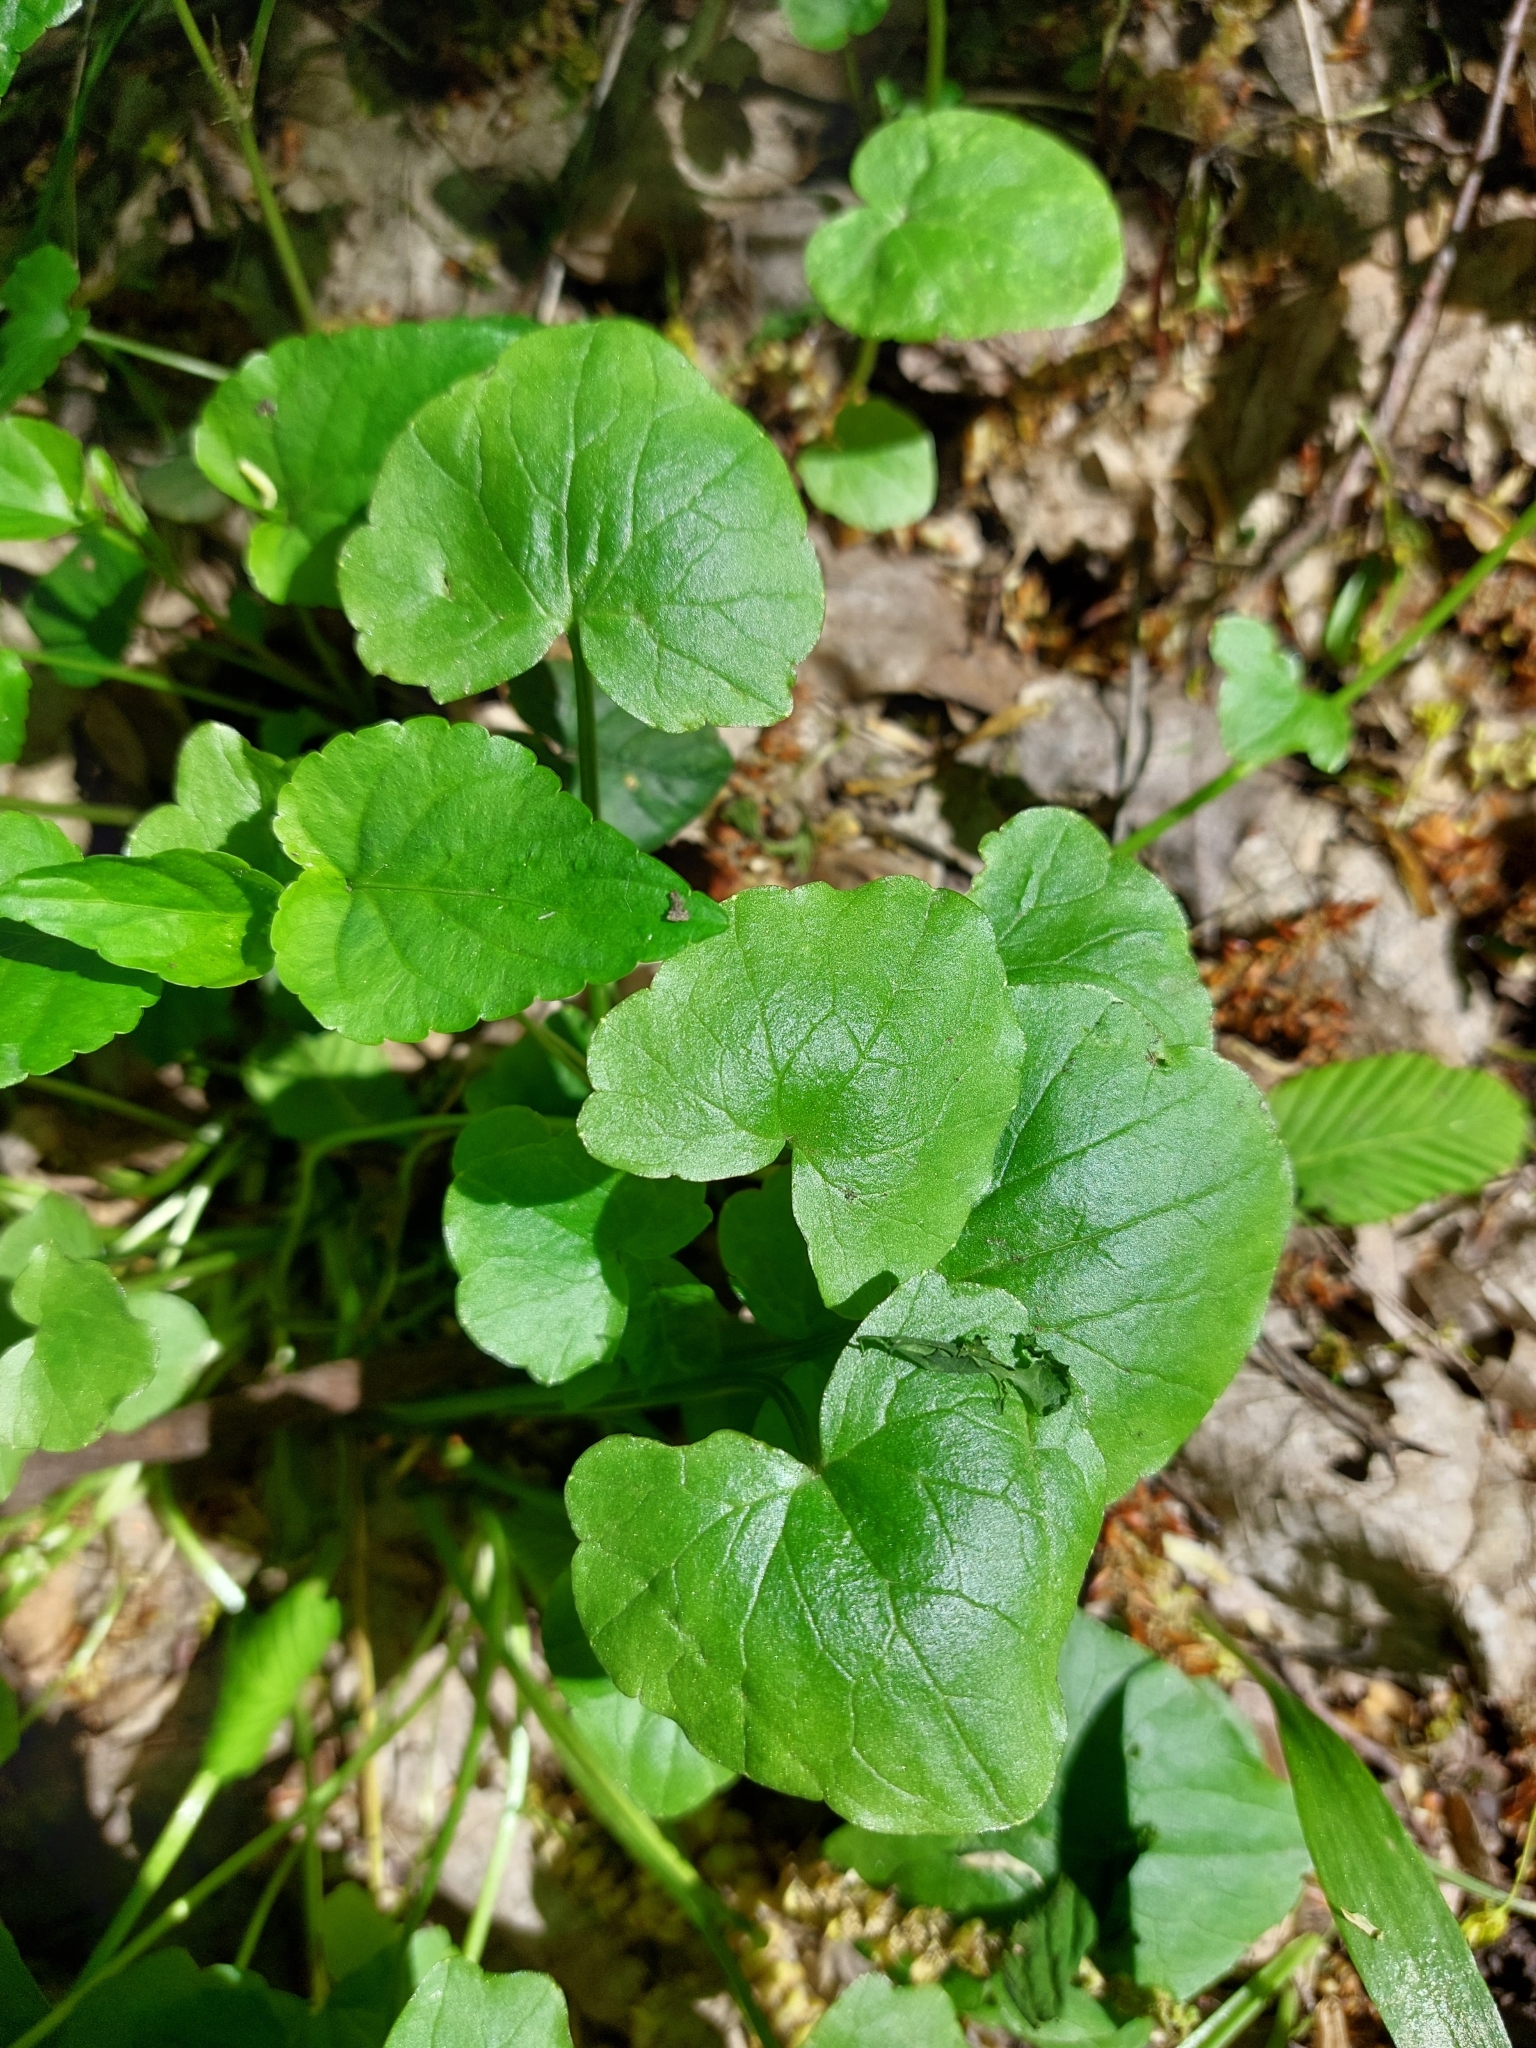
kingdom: Plantae
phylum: Tracheophyta
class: Magnoliopsida
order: Malpighiales
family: Violaceae
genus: Viola
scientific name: Viola reichenbachiana
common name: Early dog-violet
